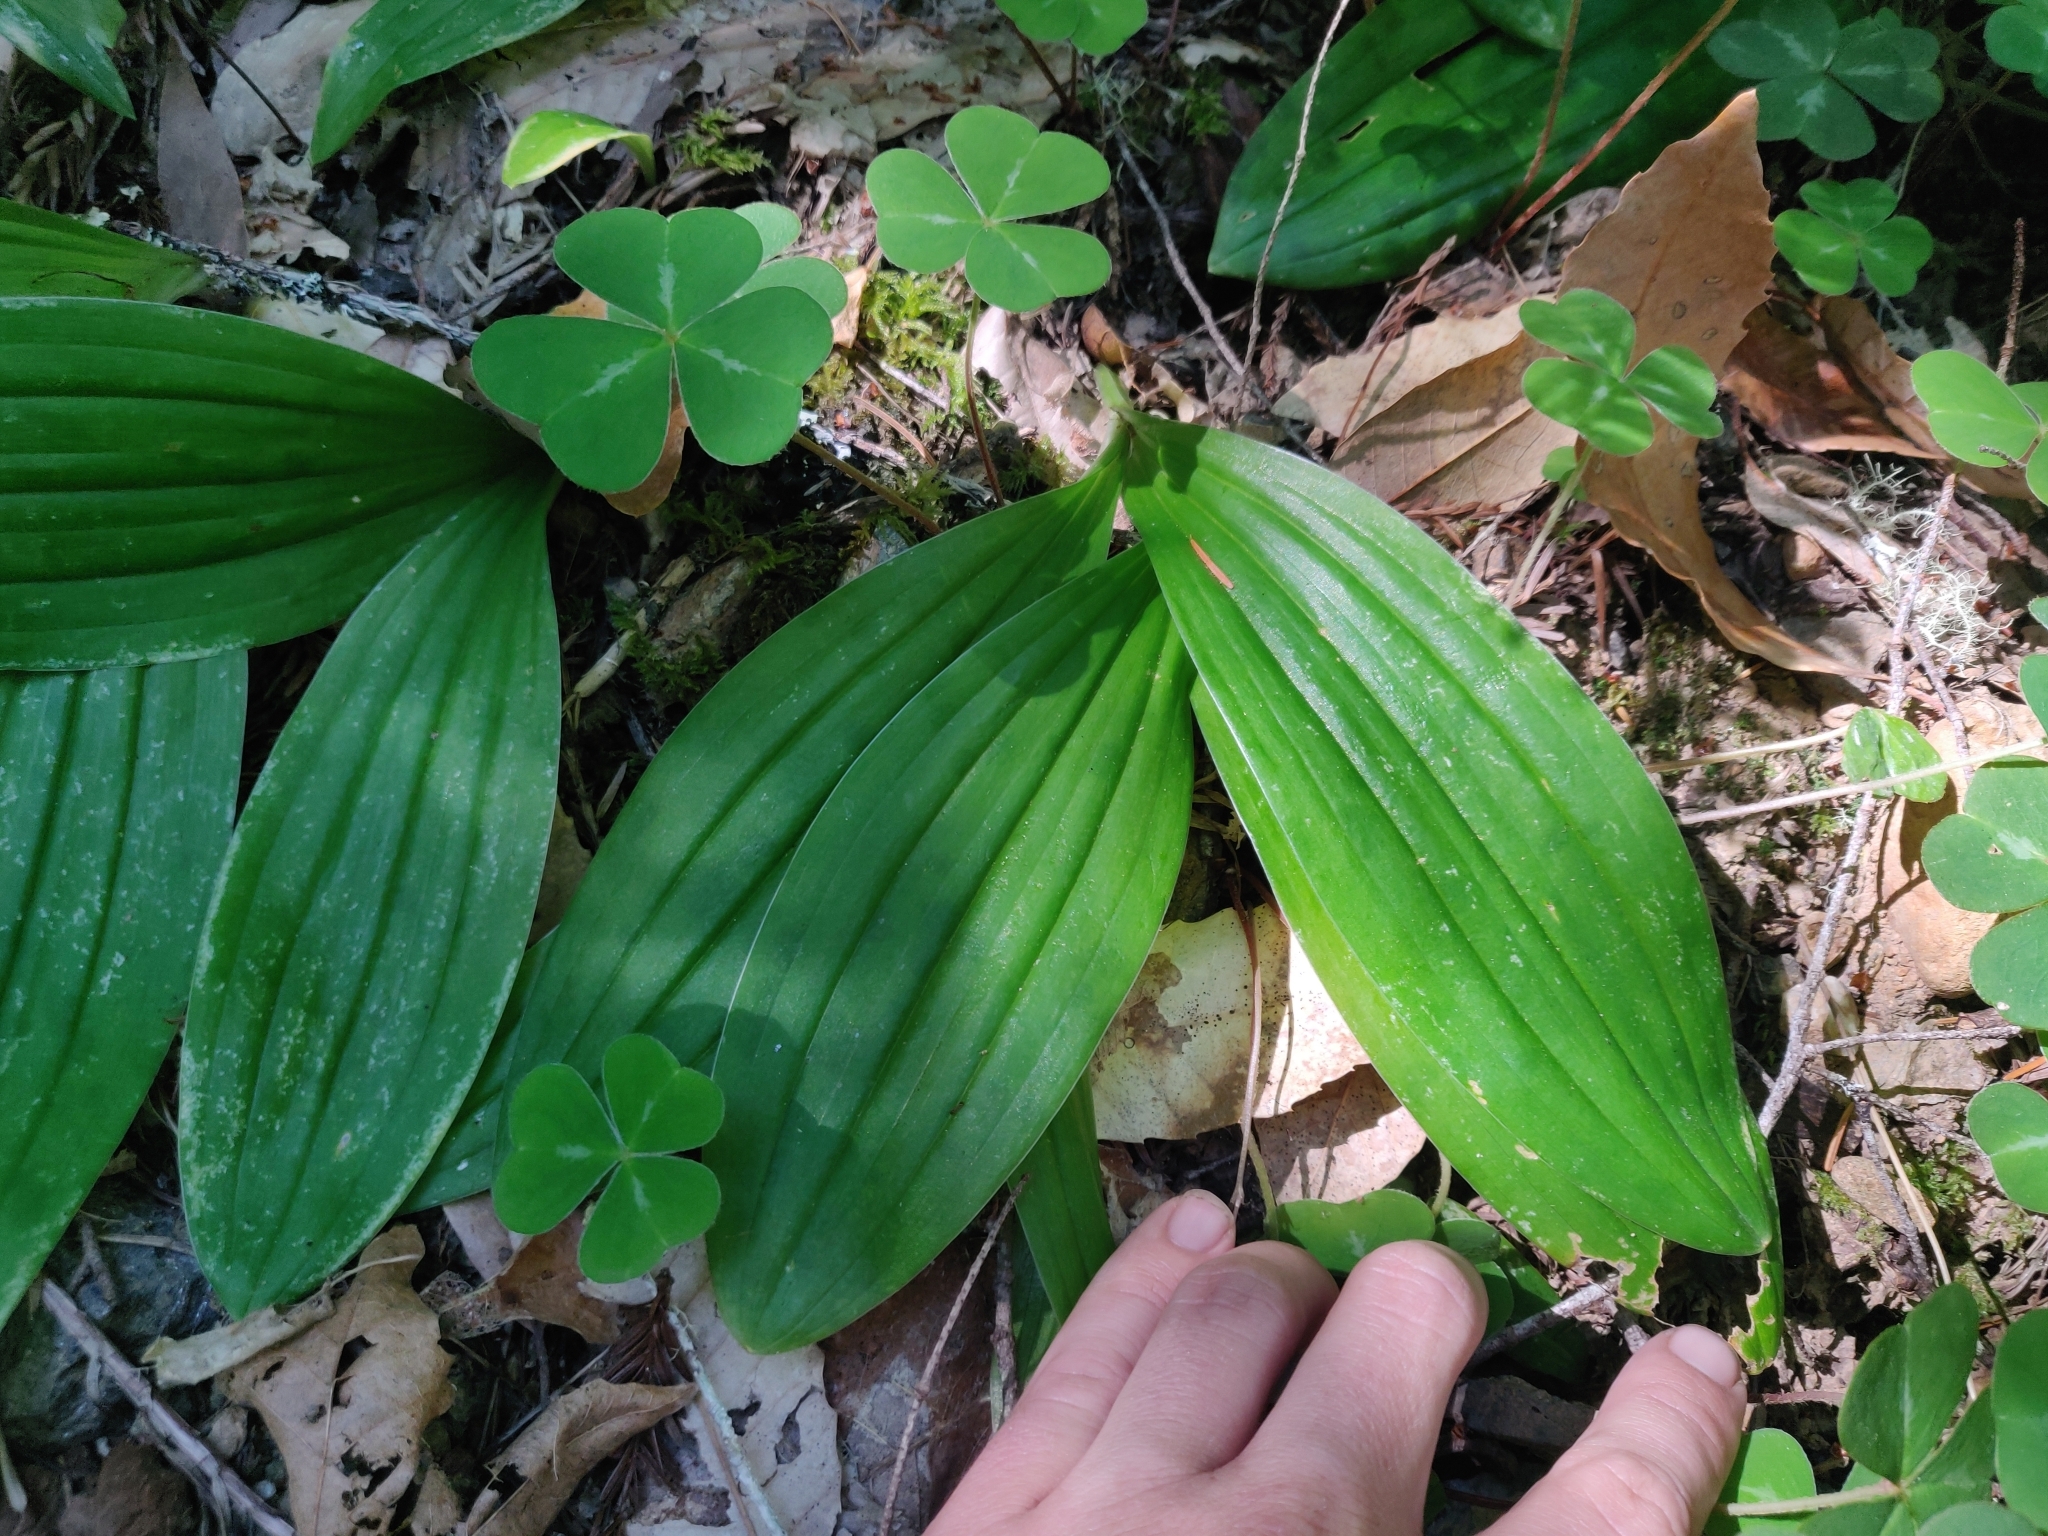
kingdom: Plantae
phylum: Tracheophyta
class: Liliopsida
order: Liliales
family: Liliaceae
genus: Scoliopus
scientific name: Scoliopus bigelovii
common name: Foetid adder's-tongue
